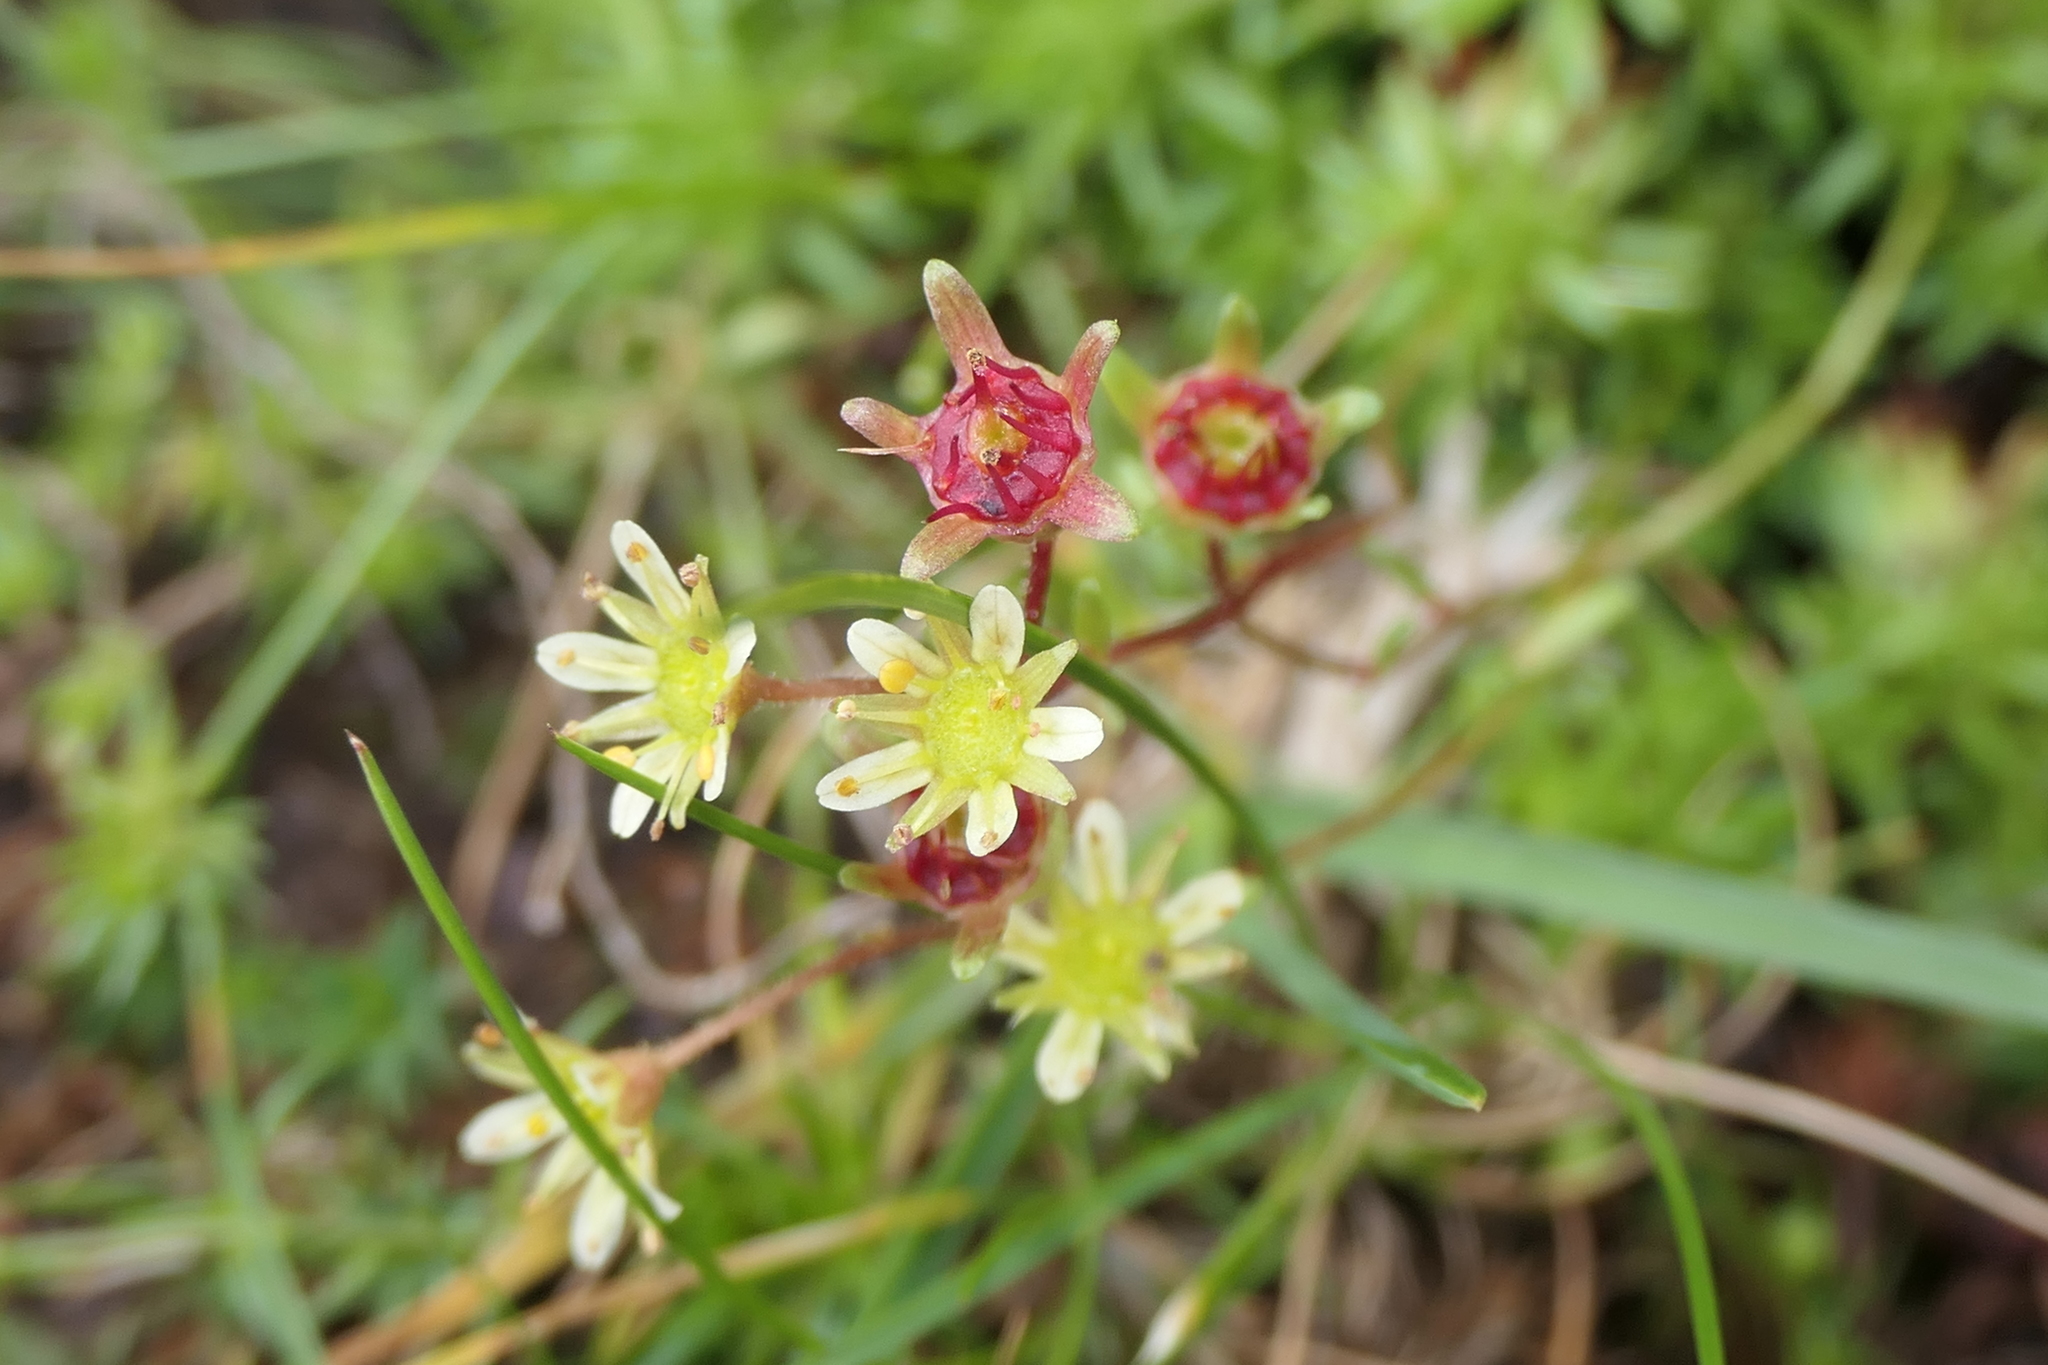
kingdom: Plantae
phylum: Tracheophyta
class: Magnoliopsida
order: Saxifragales
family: Saxifragaceae
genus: Saxifraga
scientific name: Saxifraga moschata
